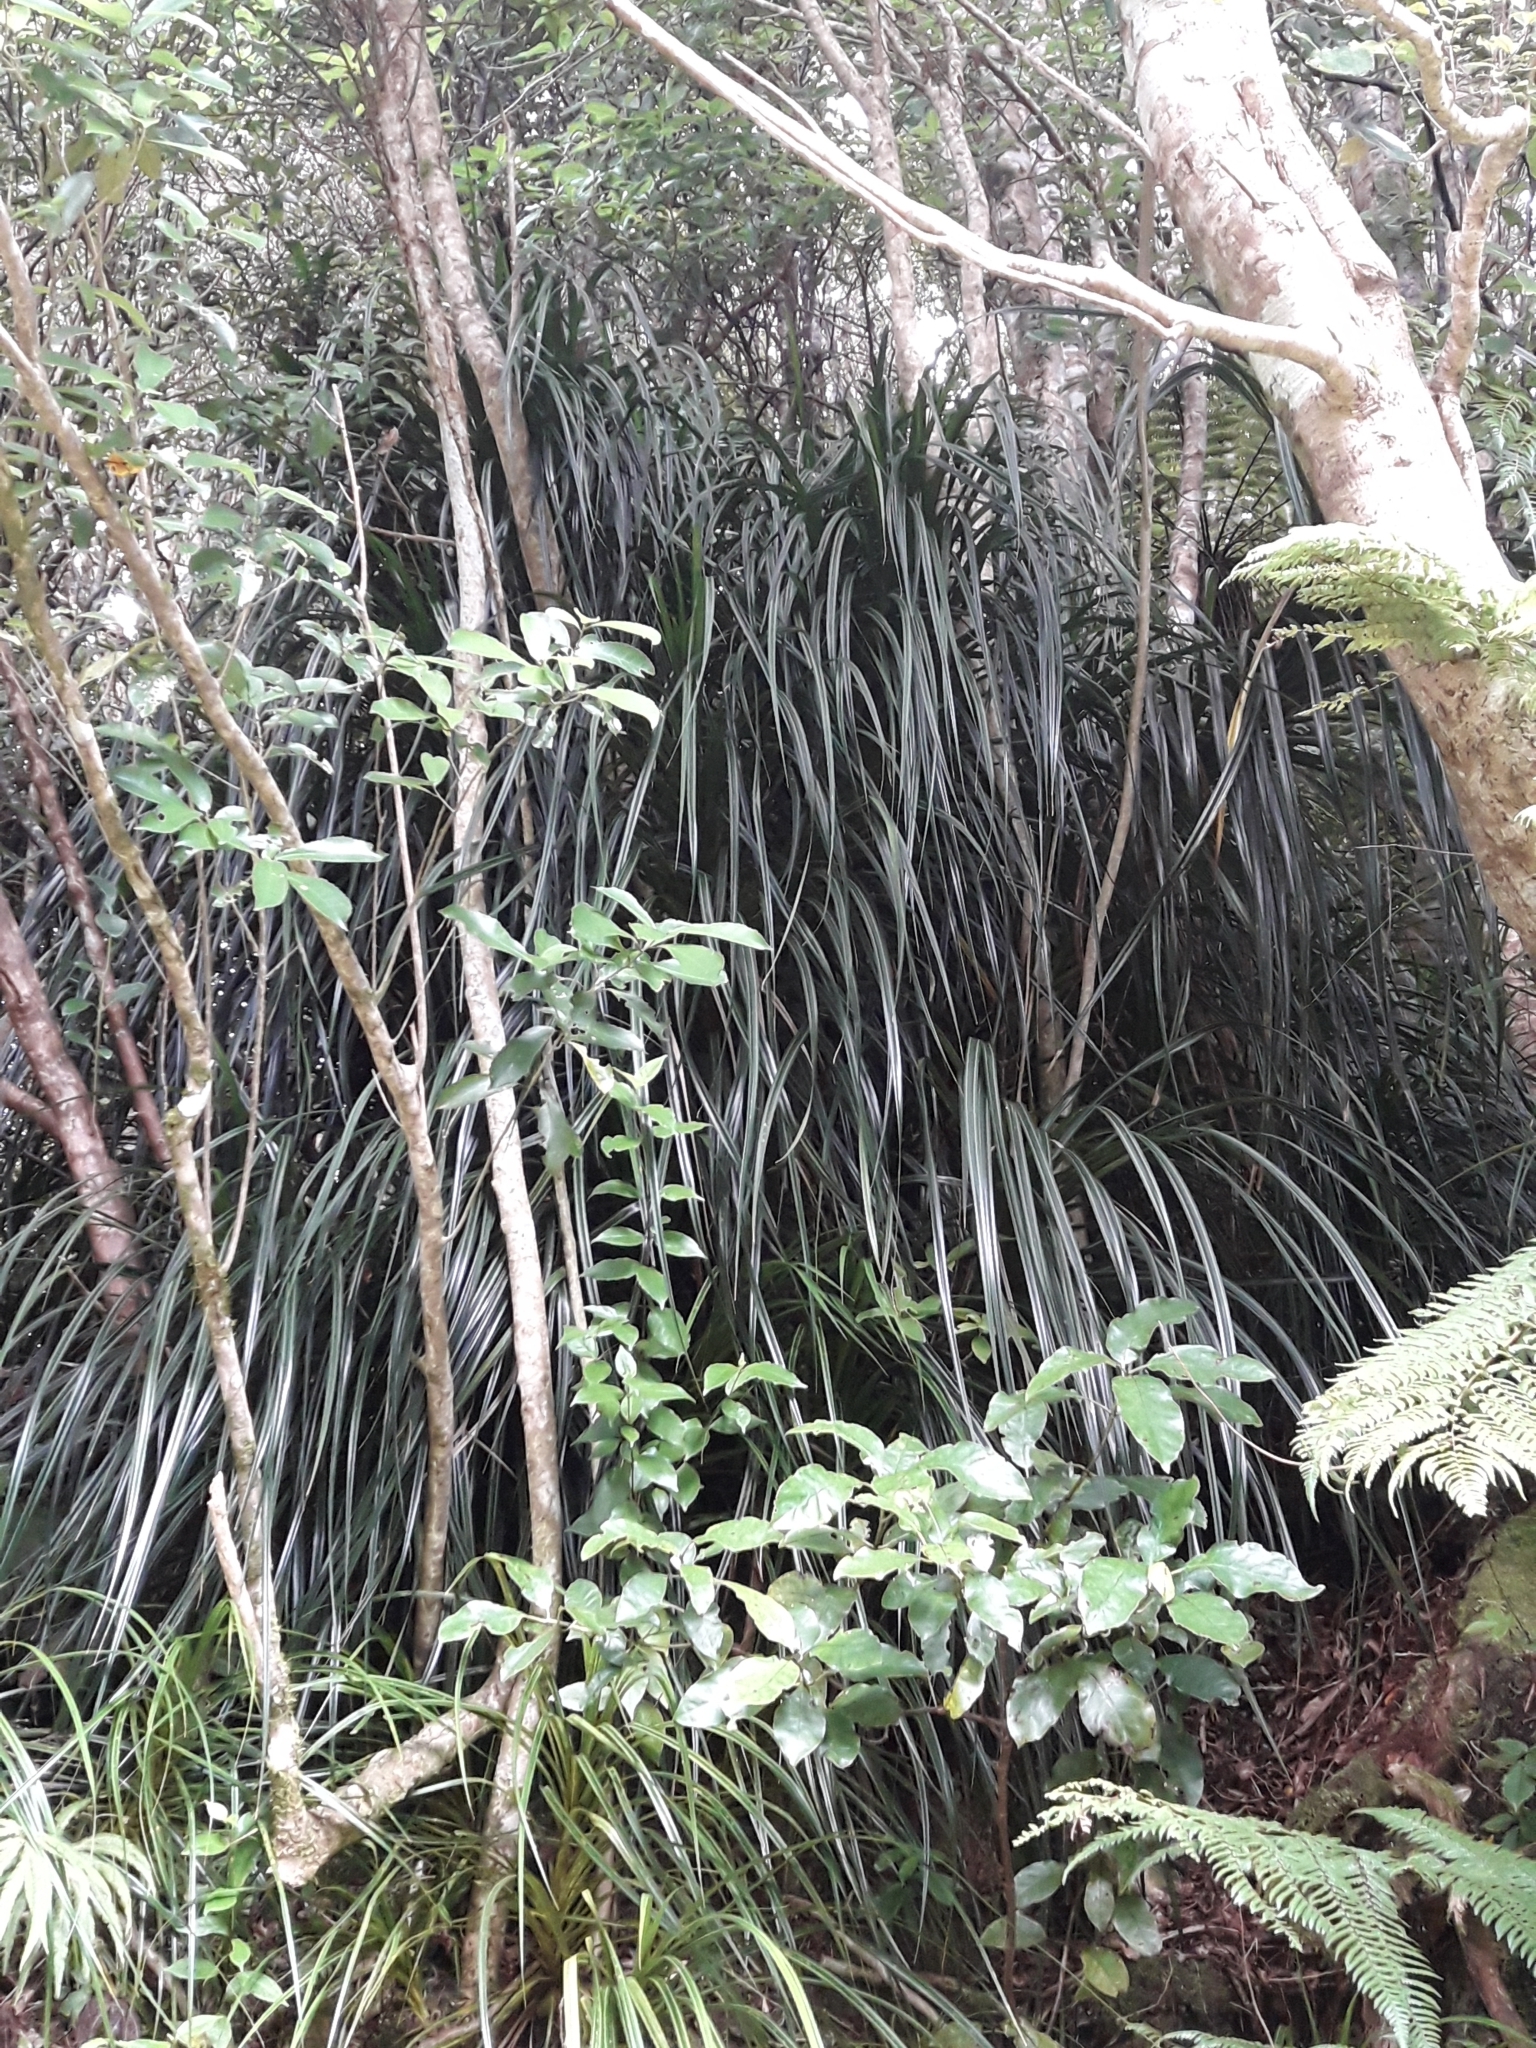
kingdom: Plantae
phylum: Tracheophyta
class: Liliopsida
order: Pandanales
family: Pandanaceae
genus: Freycinetia
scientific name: Freycinetia banksii
